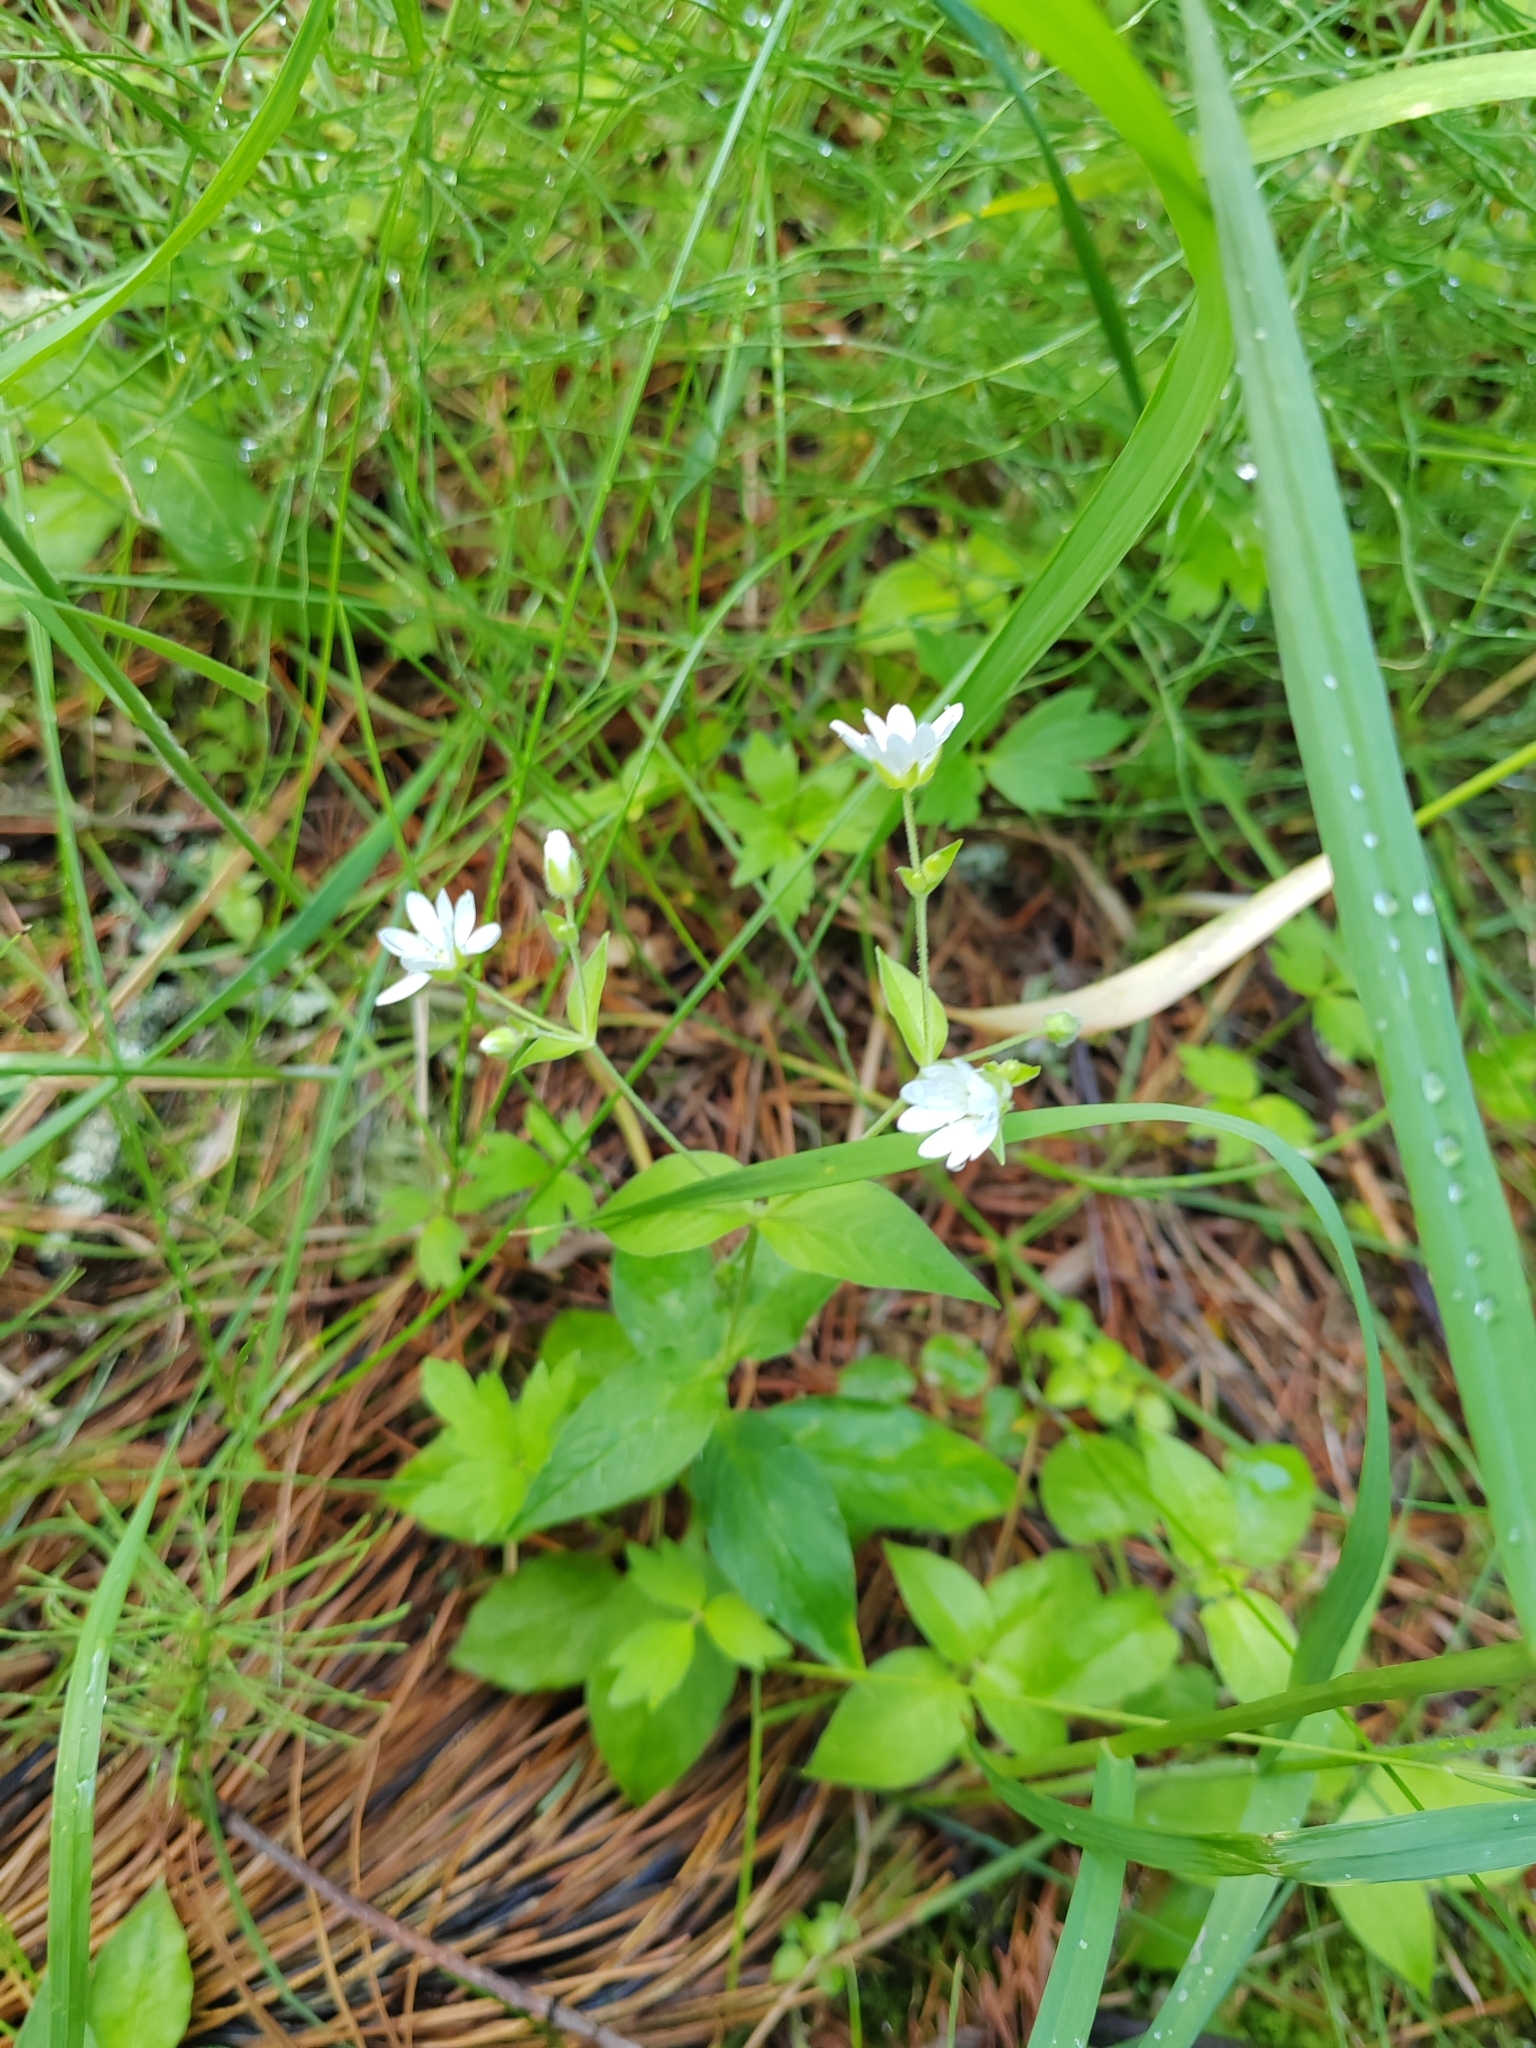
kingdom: Plantae
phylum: Tracheophyta
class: Magnoliopsida
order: Caryophyllales
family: Caryophyllaceae
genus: Stellaria
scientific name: Stellaria bungeana
